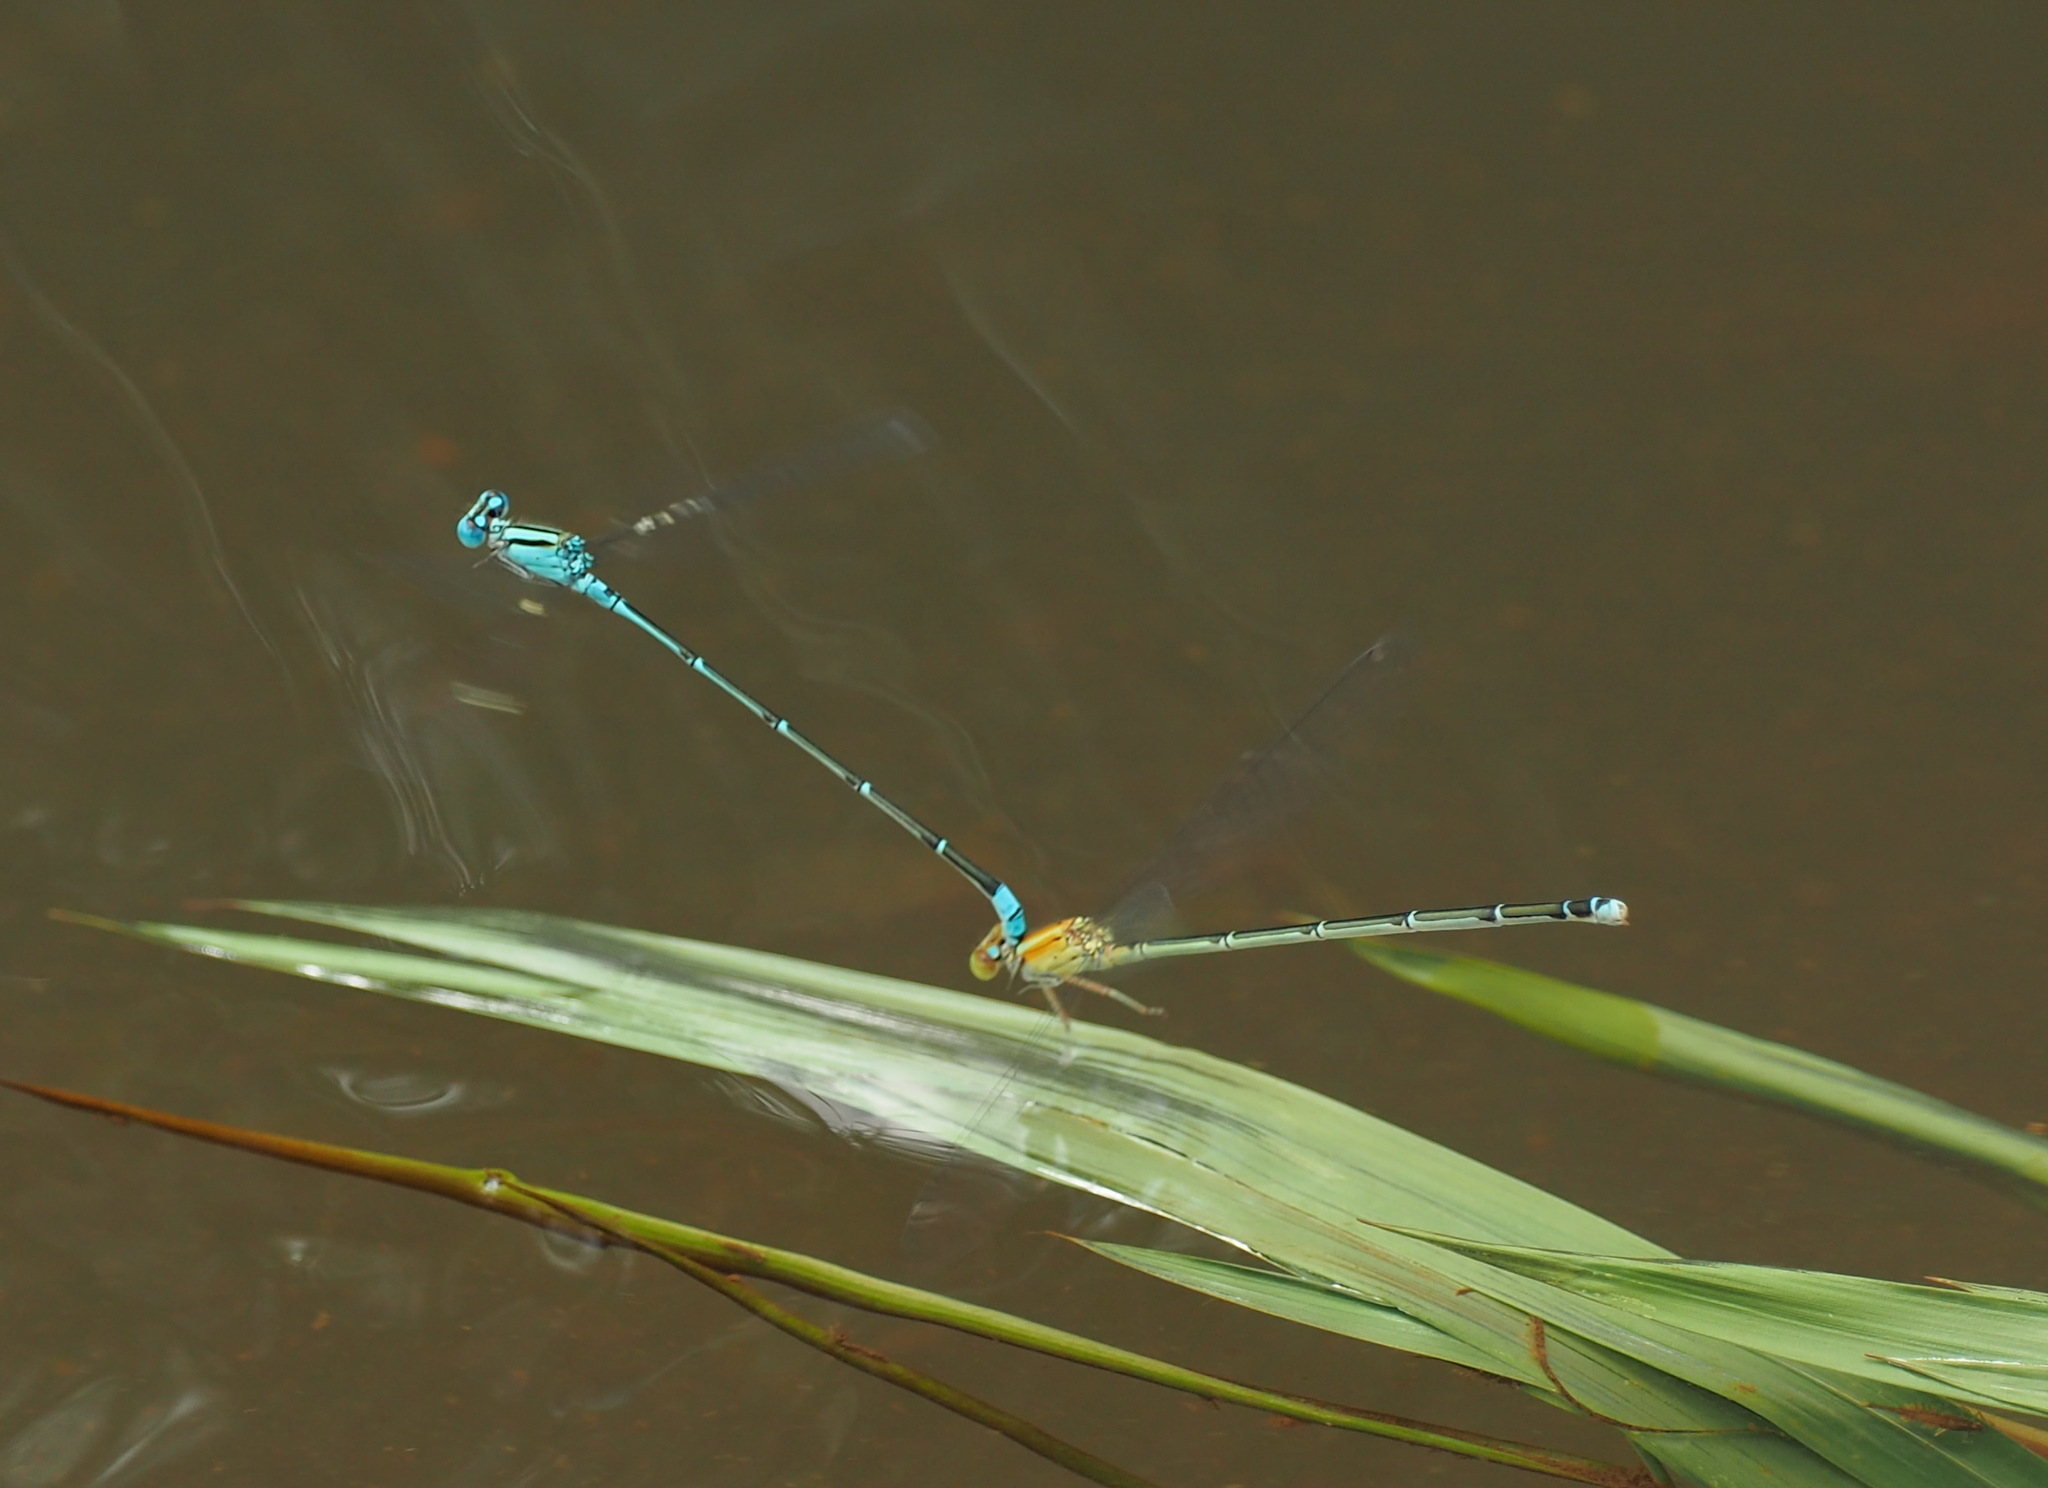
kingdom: Animalia
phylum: Arthropoda
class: Insecta
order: Odonata
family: Coenagrionidae
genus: Pseudagrion
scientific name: Pseudagrion microcephalum
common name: Blue riverdamsel
